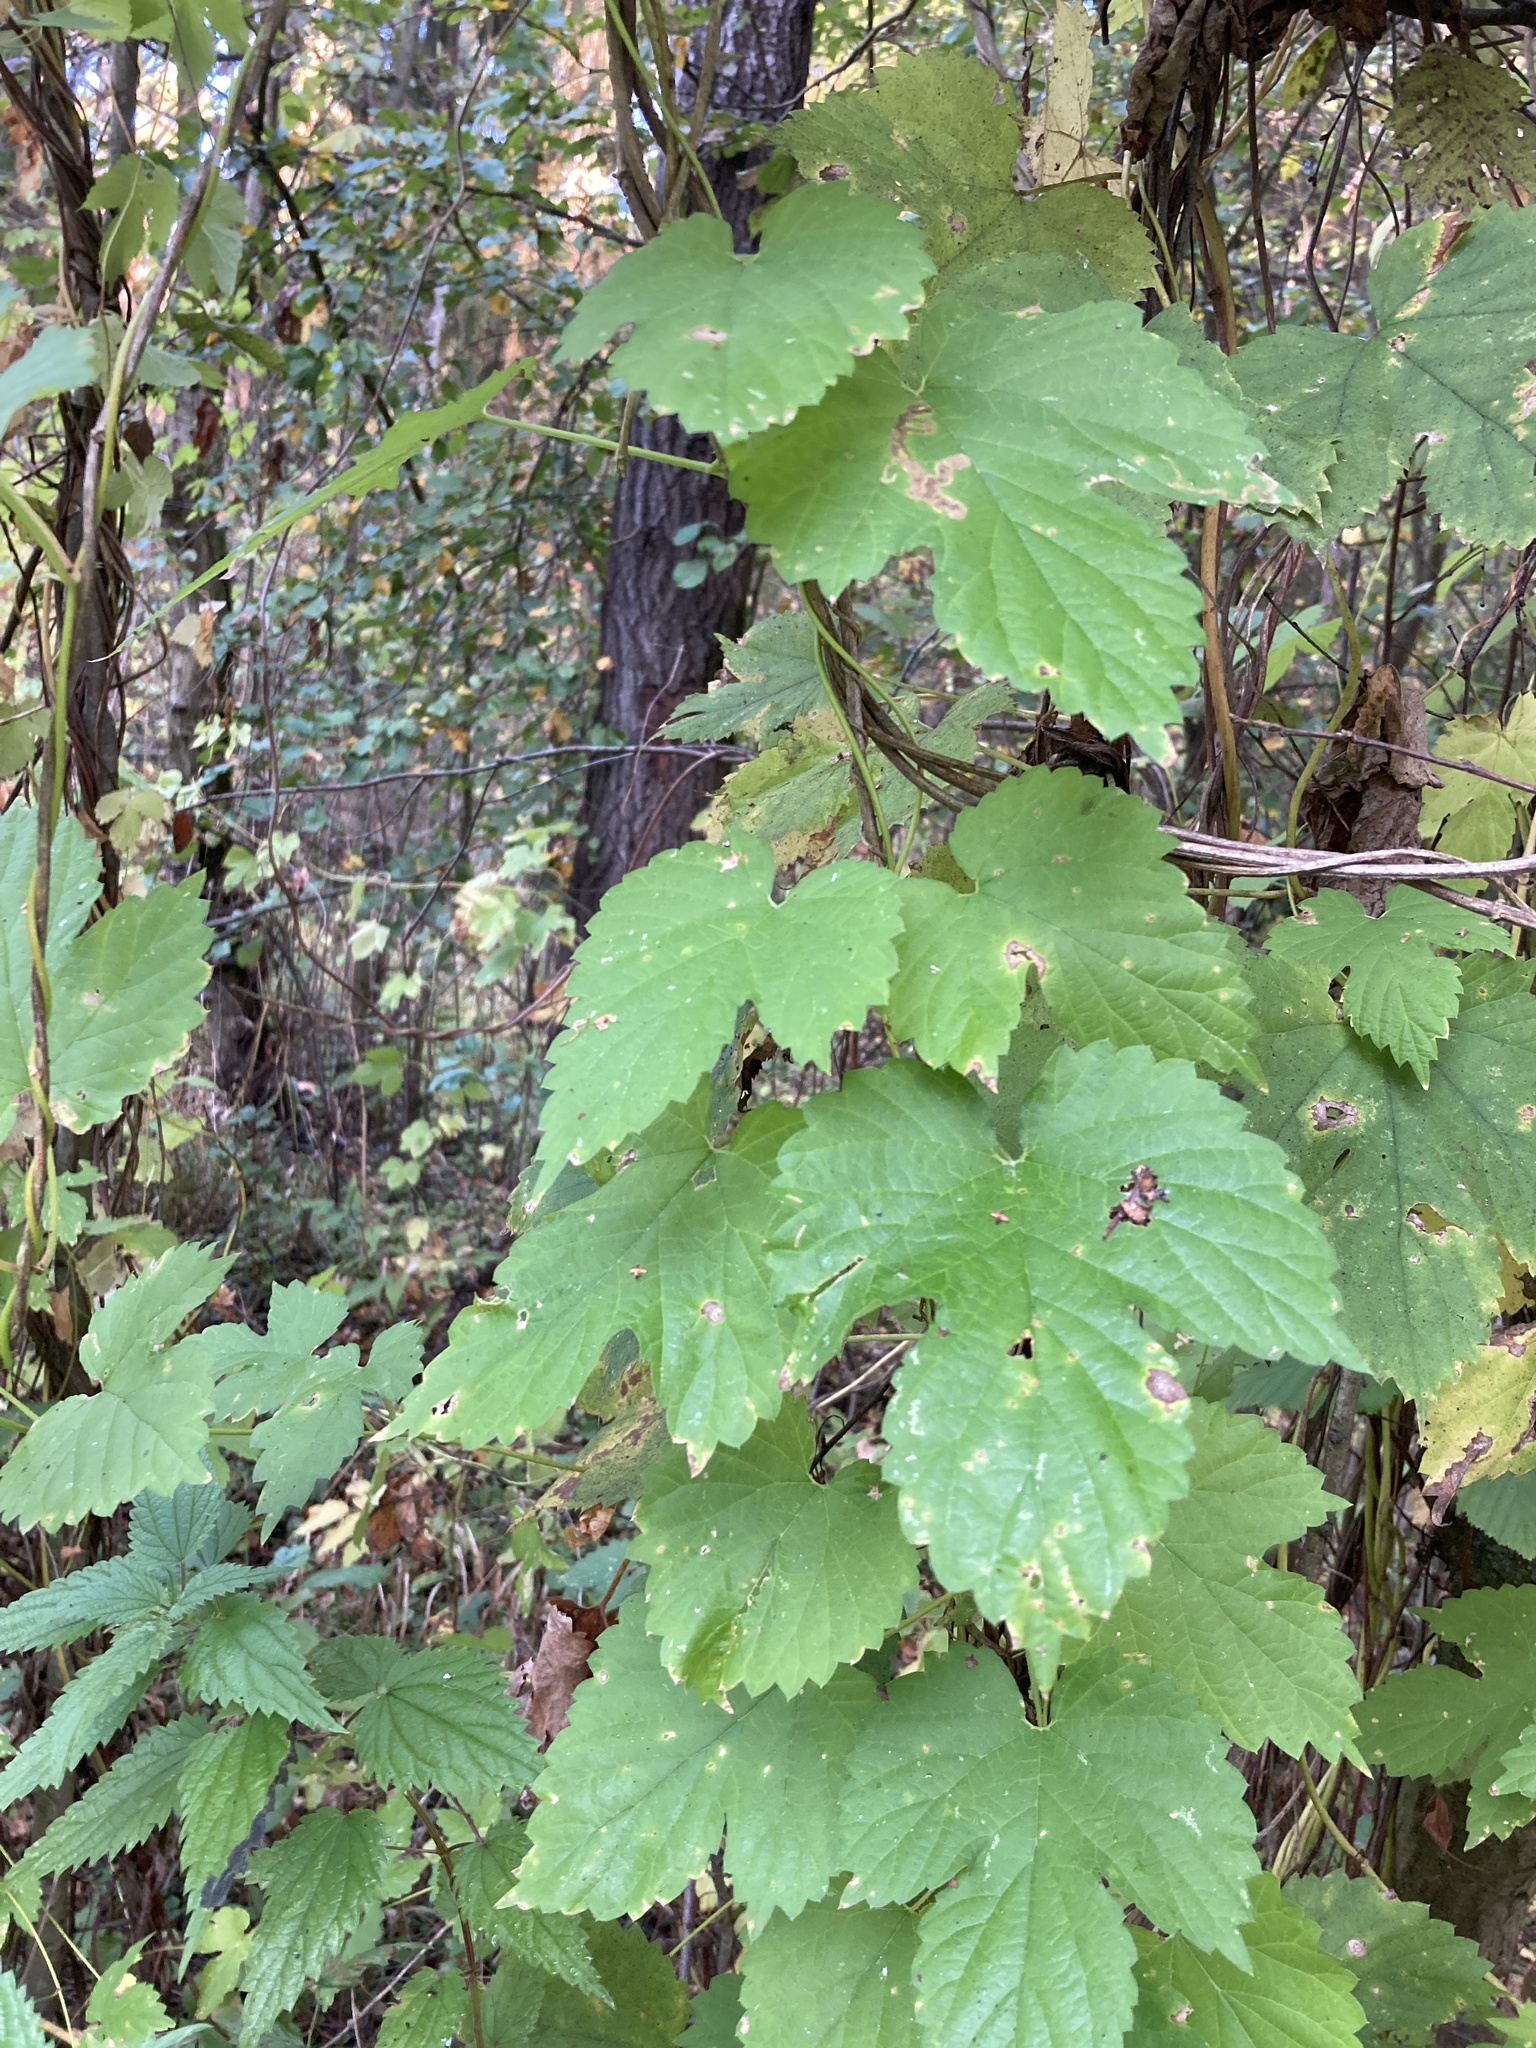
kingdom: Plantae
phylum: Tracheophyta
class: Magnoliopsida
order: Rosales
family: Cannabaceae
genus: Humulus
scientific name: Humulus lupulus
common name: Hop
